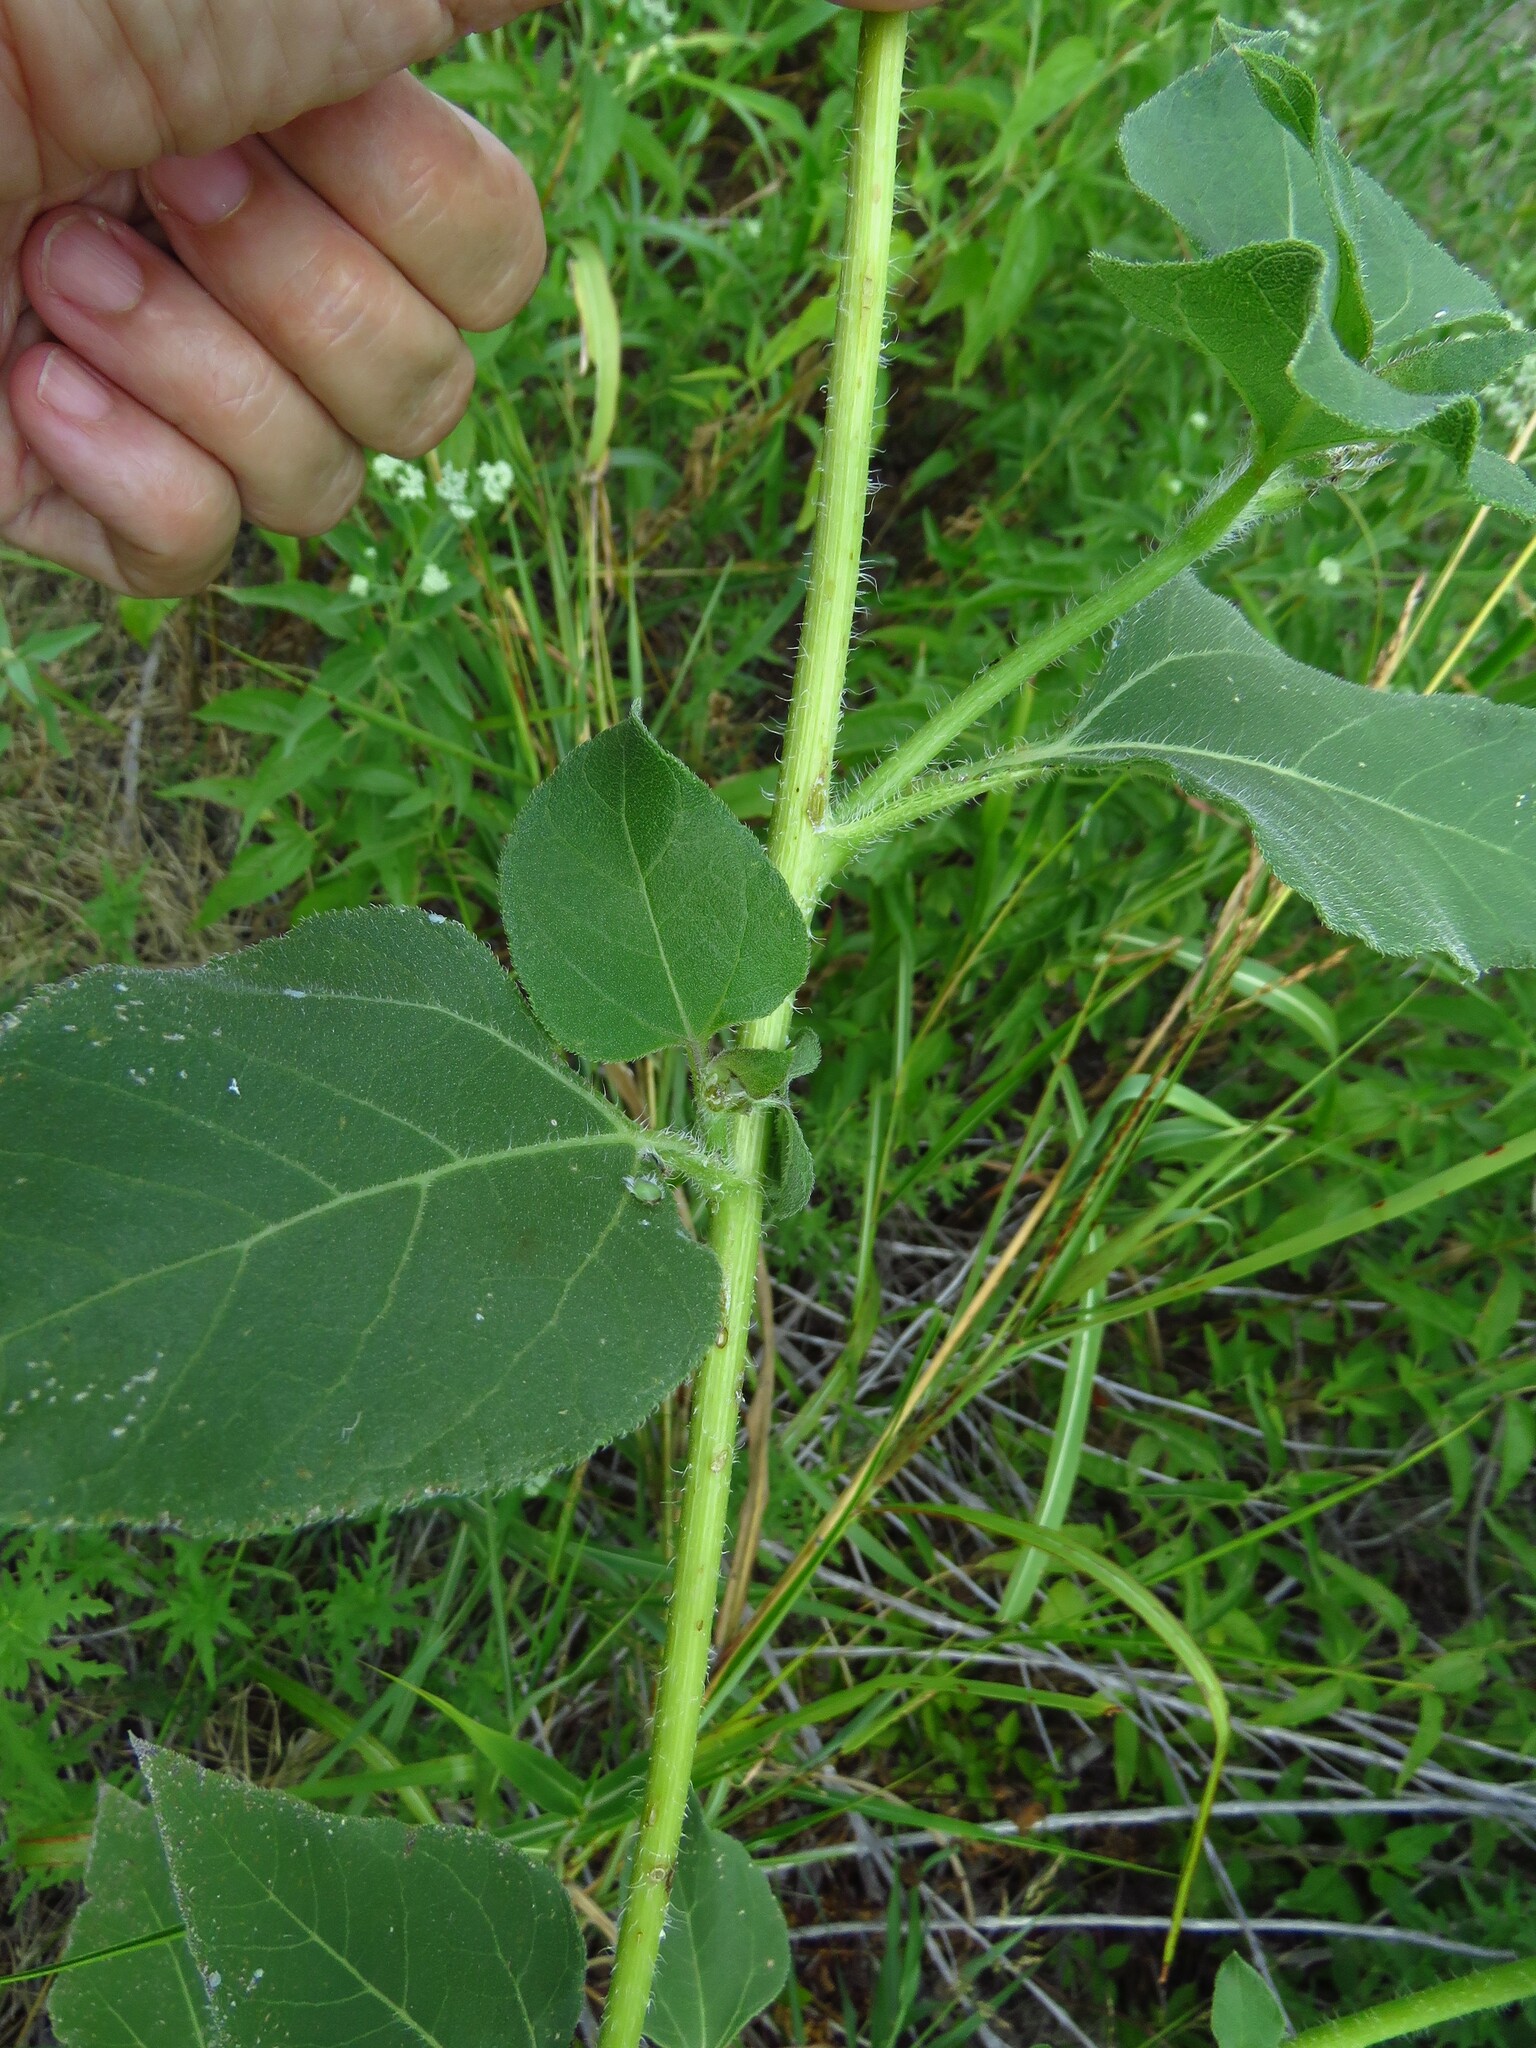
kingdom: Plantae
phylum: Tracheophyta
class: Magnoliopsida
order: Asterales
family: Asteraceae
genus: Helianthus
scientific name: Helianthus annuus
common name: Sunflower
